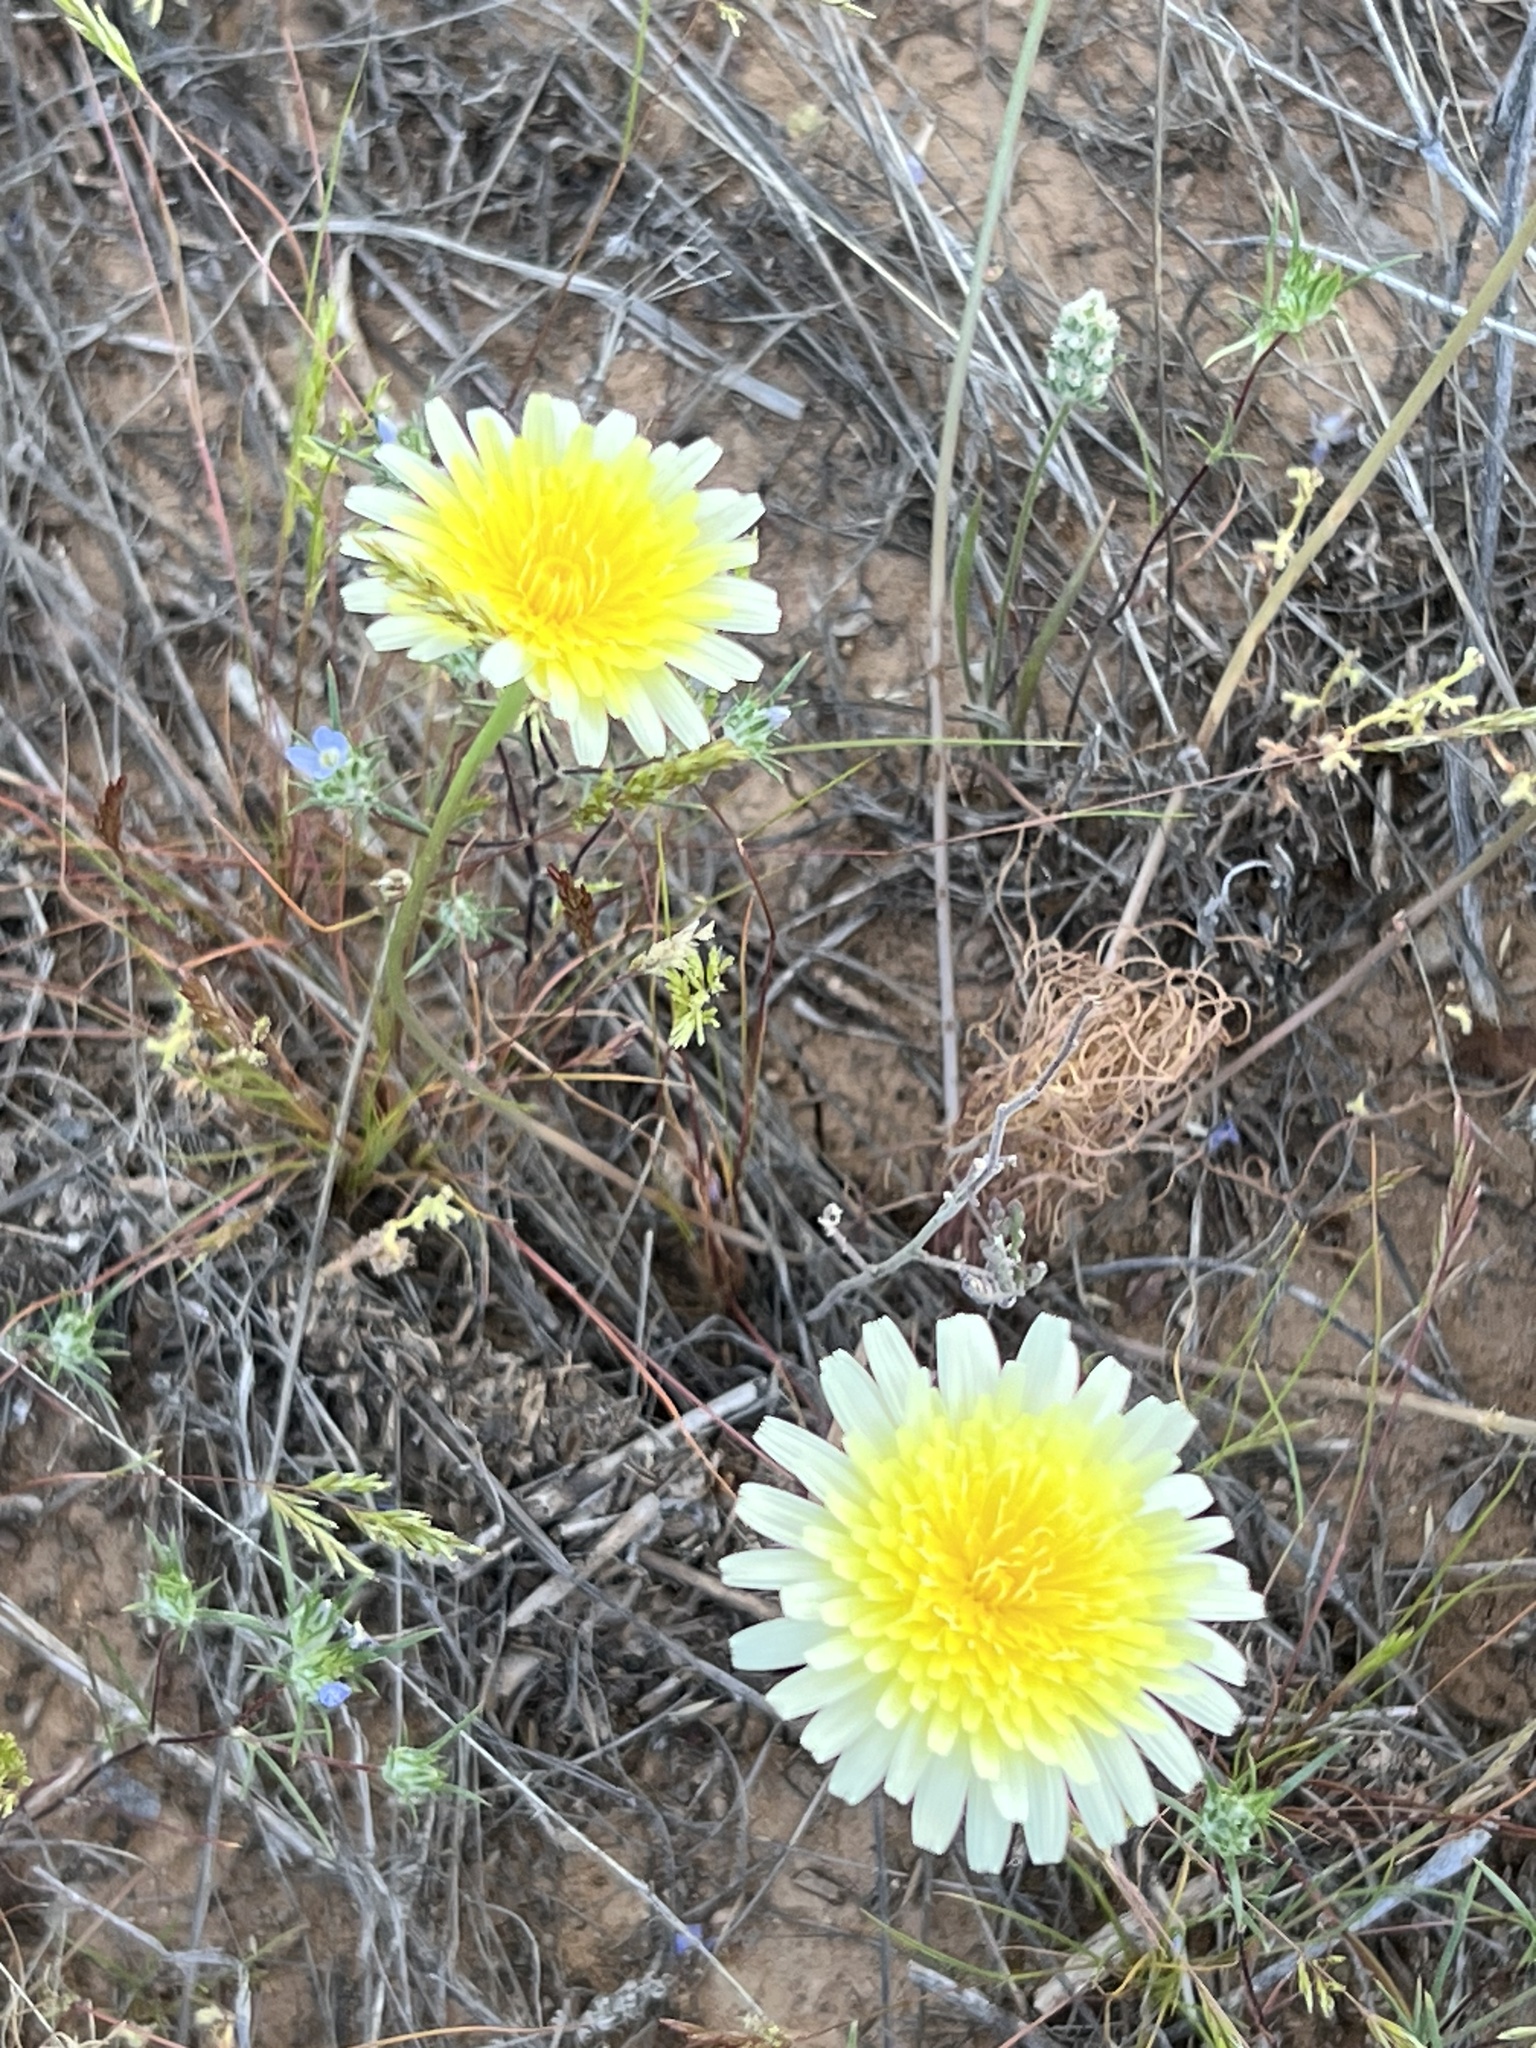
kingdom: Plantae
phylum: Tracheophyta
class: Magnoliopsida
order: Asterales
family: Asteraceae
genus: Malacothrix
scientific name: Malacothrix glabrata
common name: Smooth desert-dandelion
